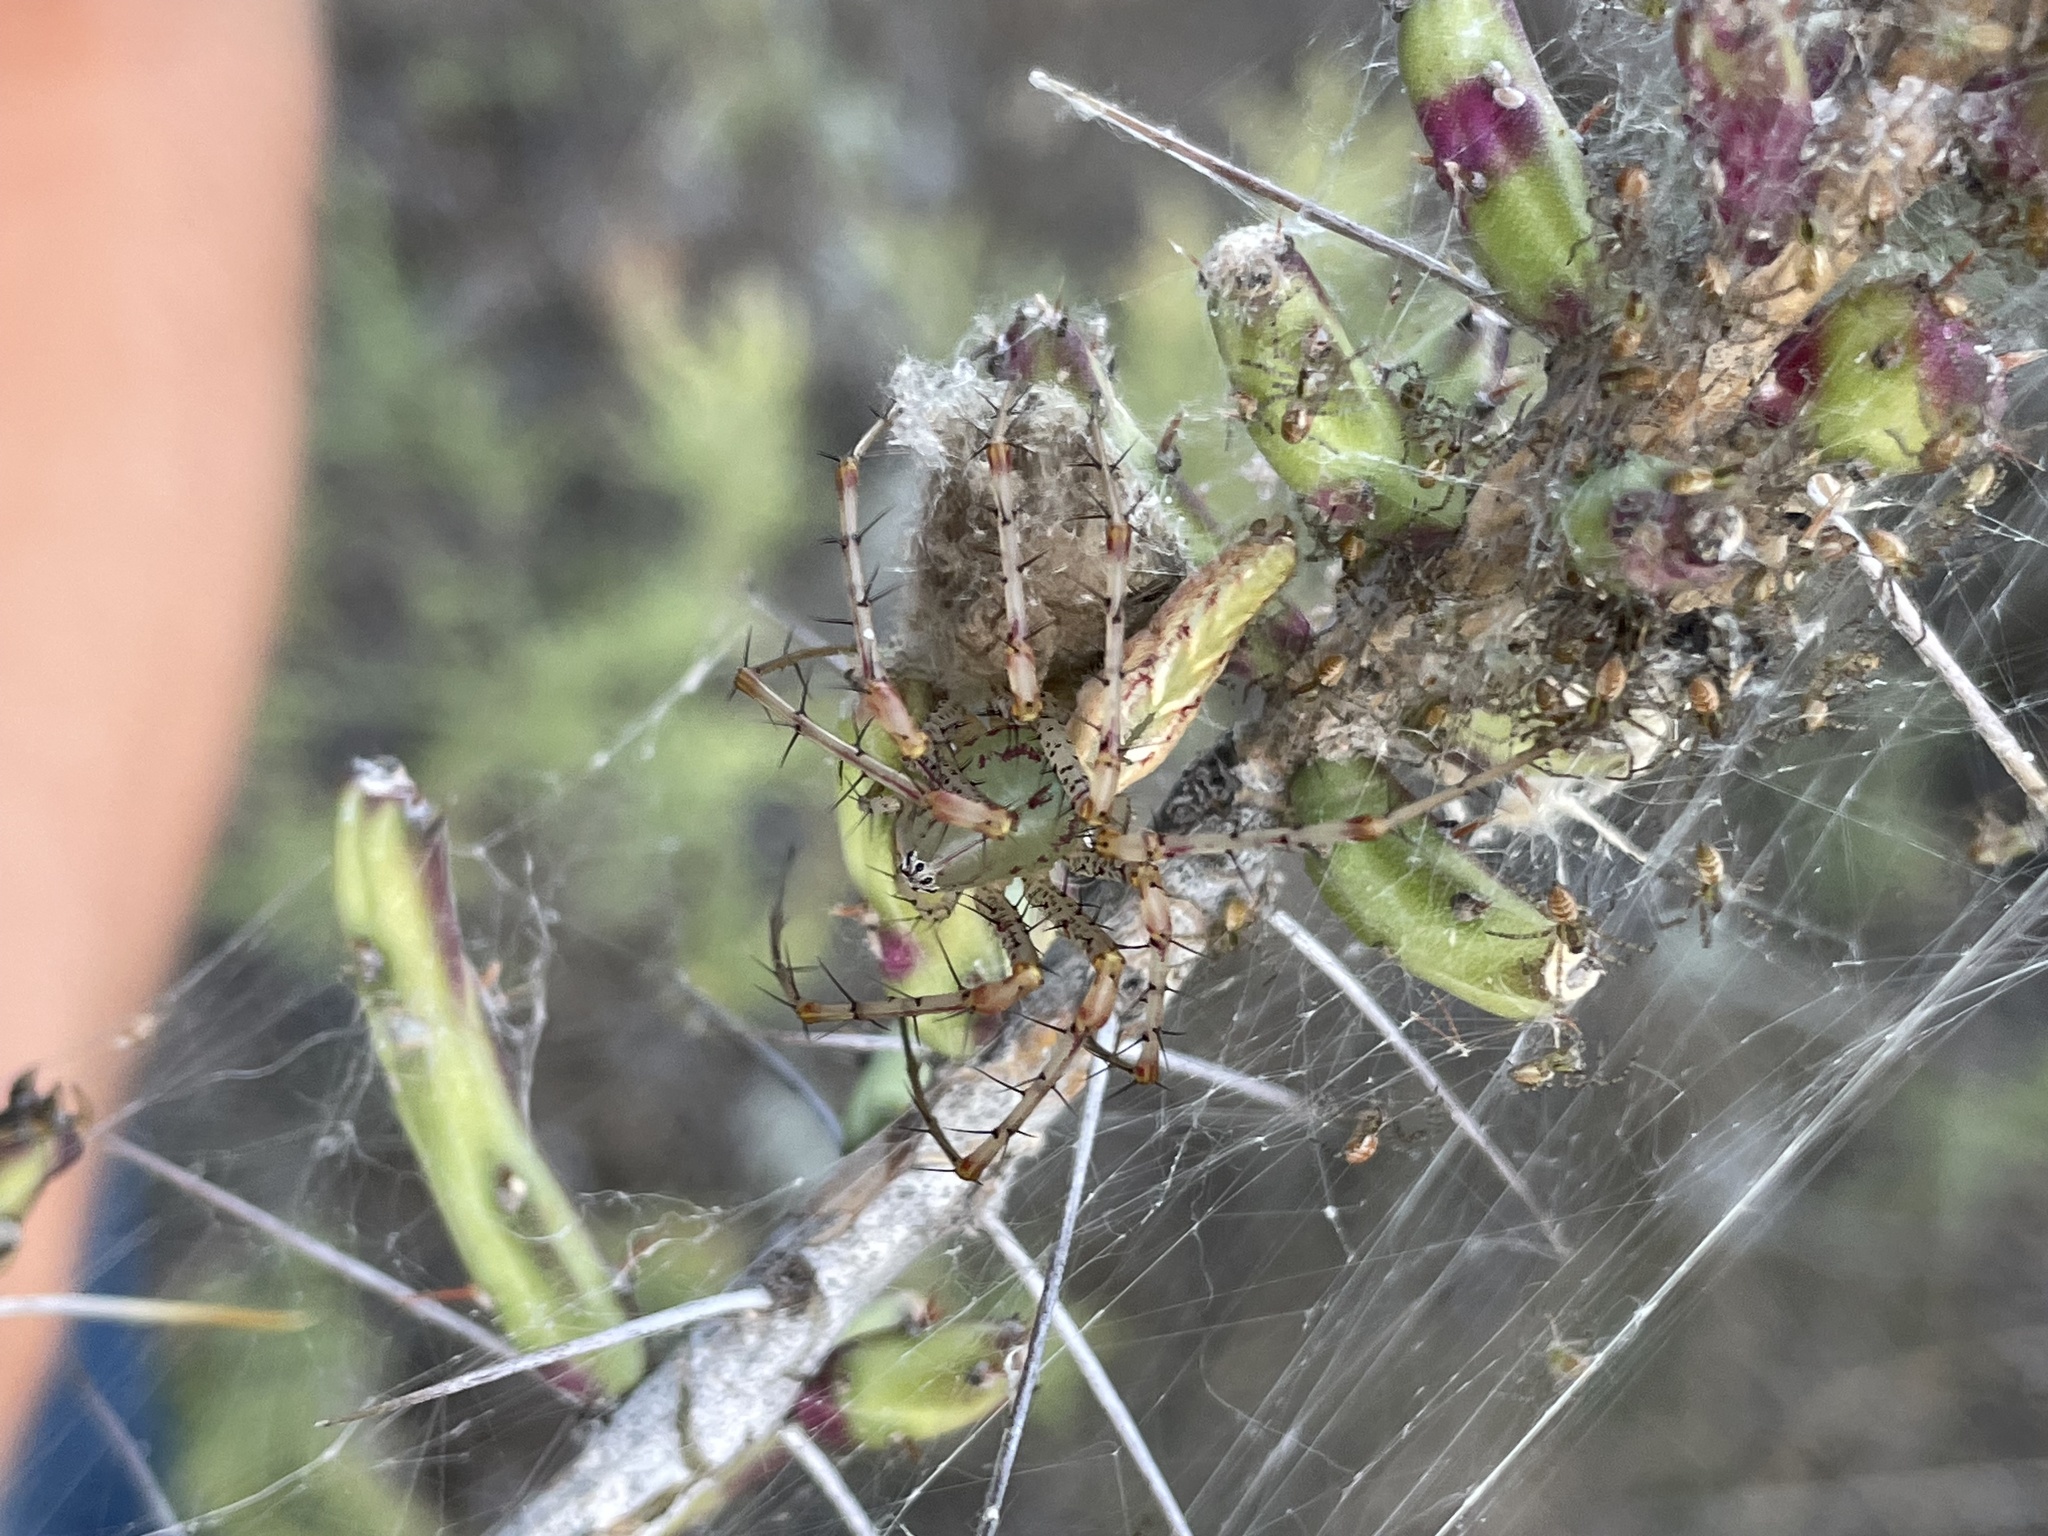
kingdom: Animalia
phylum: Arthropoda
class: Arachnida
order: Araneae
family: Oxyopidae
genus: Peucetia
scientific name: Peucetia viridans
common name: Lynx spiders
